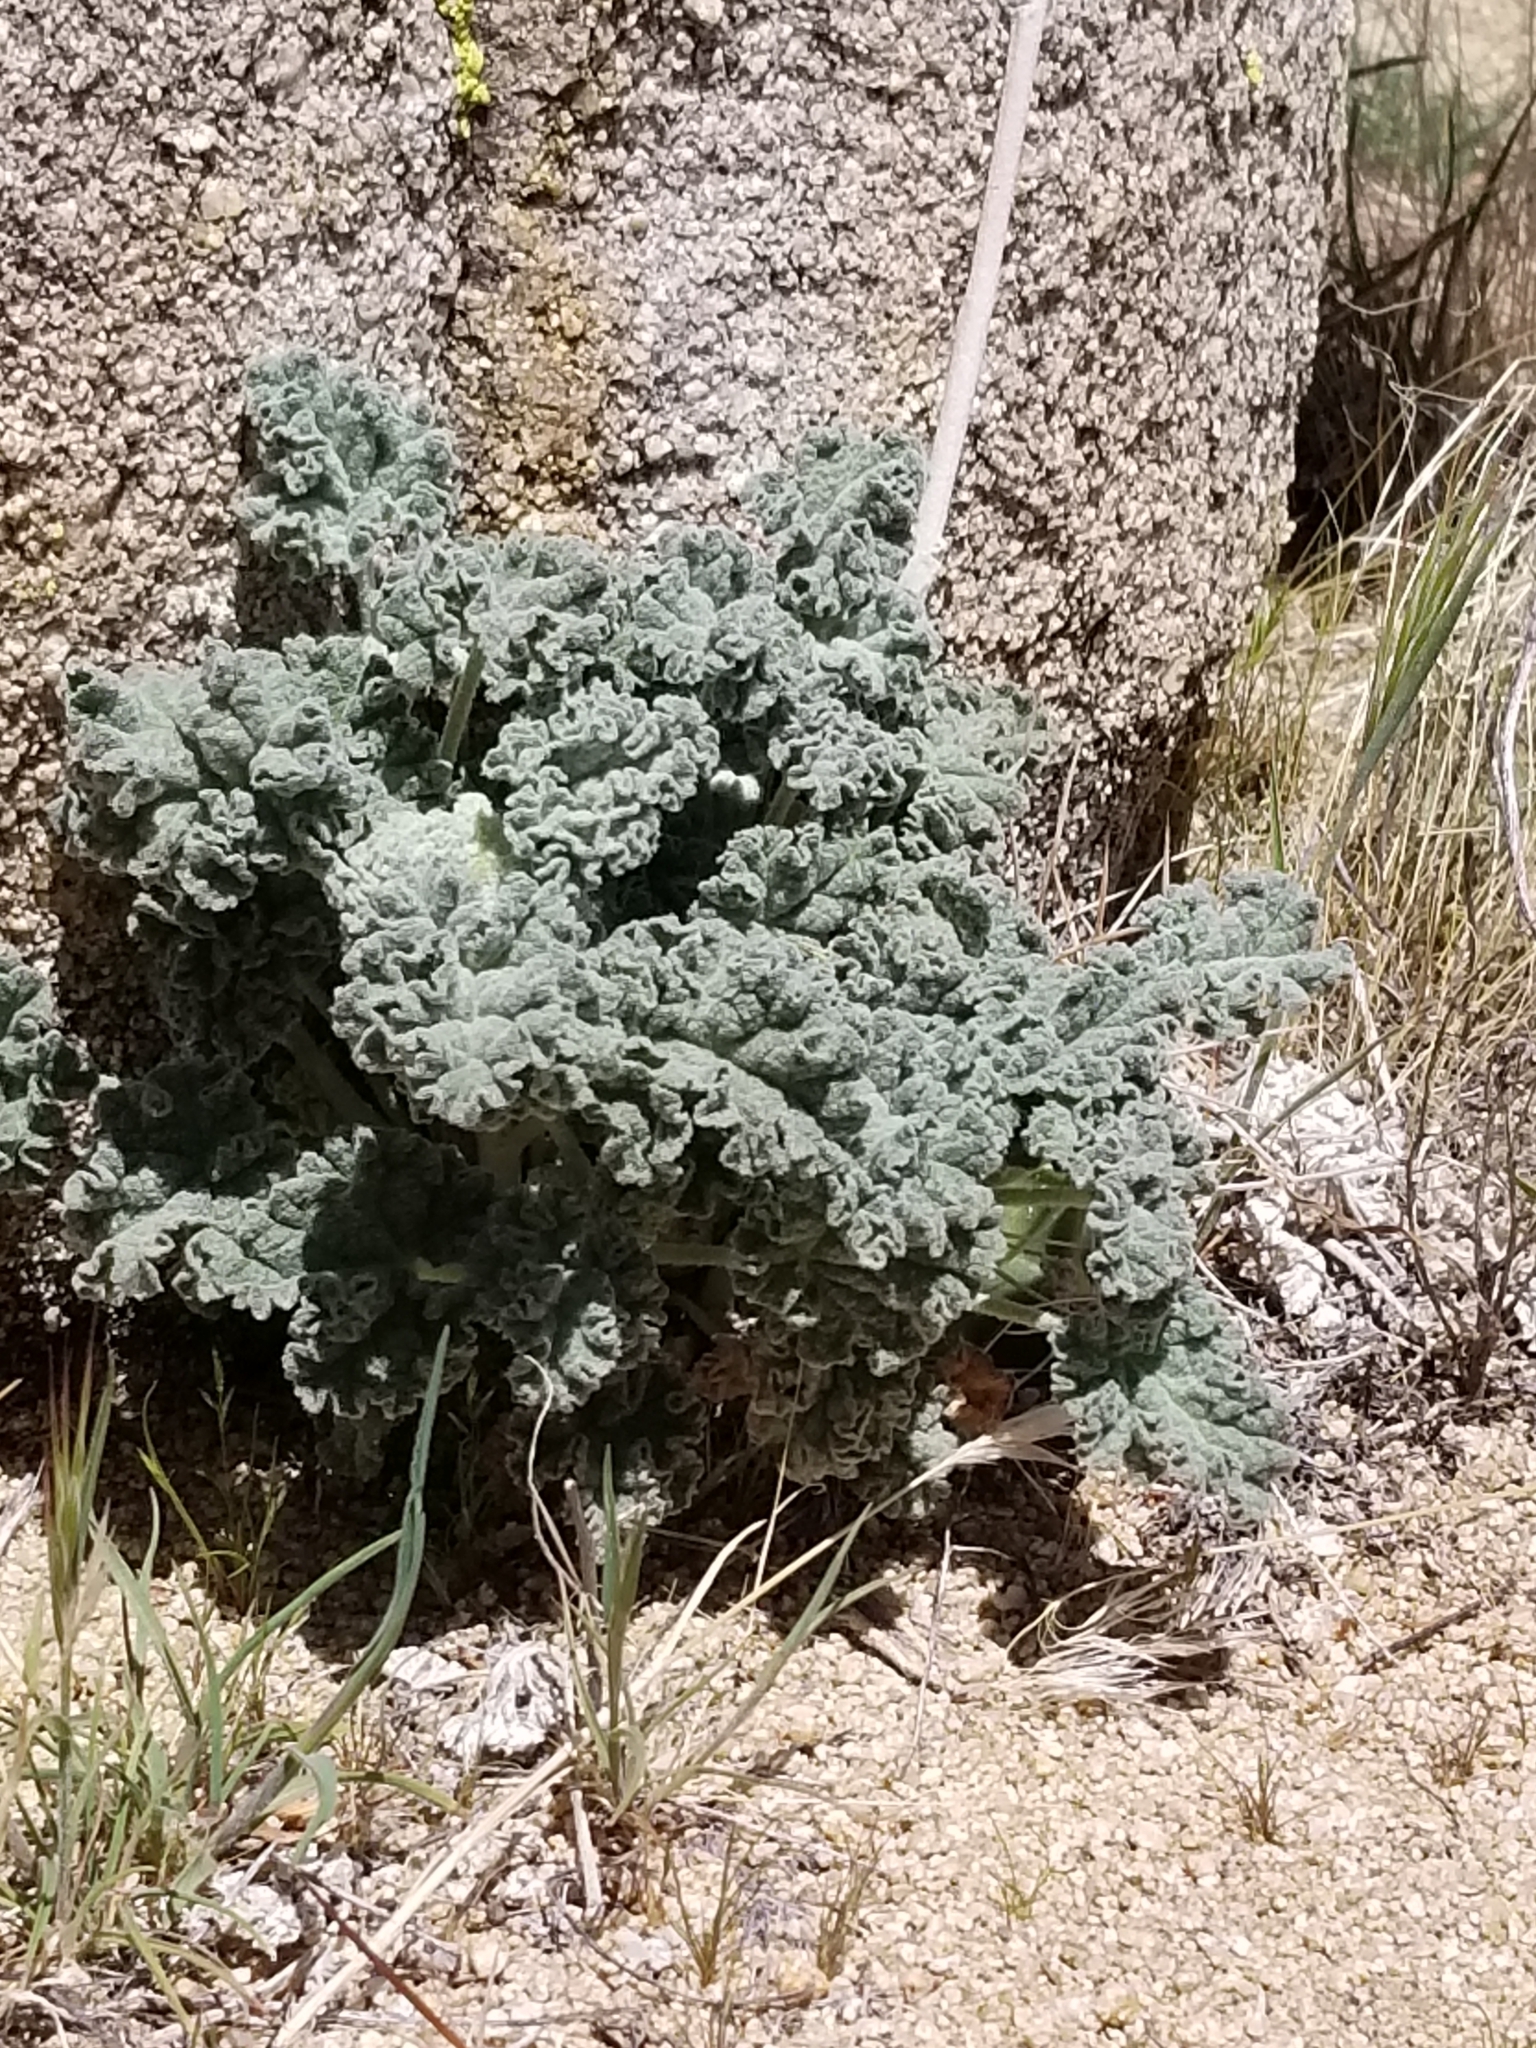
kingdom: Plantae
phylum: Tracheophyta
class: Magnoliopsida
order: Malvales
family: Malvaceae
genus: Sphaeralcea
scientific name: Sphaeralcea ambigua
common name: Apricot globe-mallow
